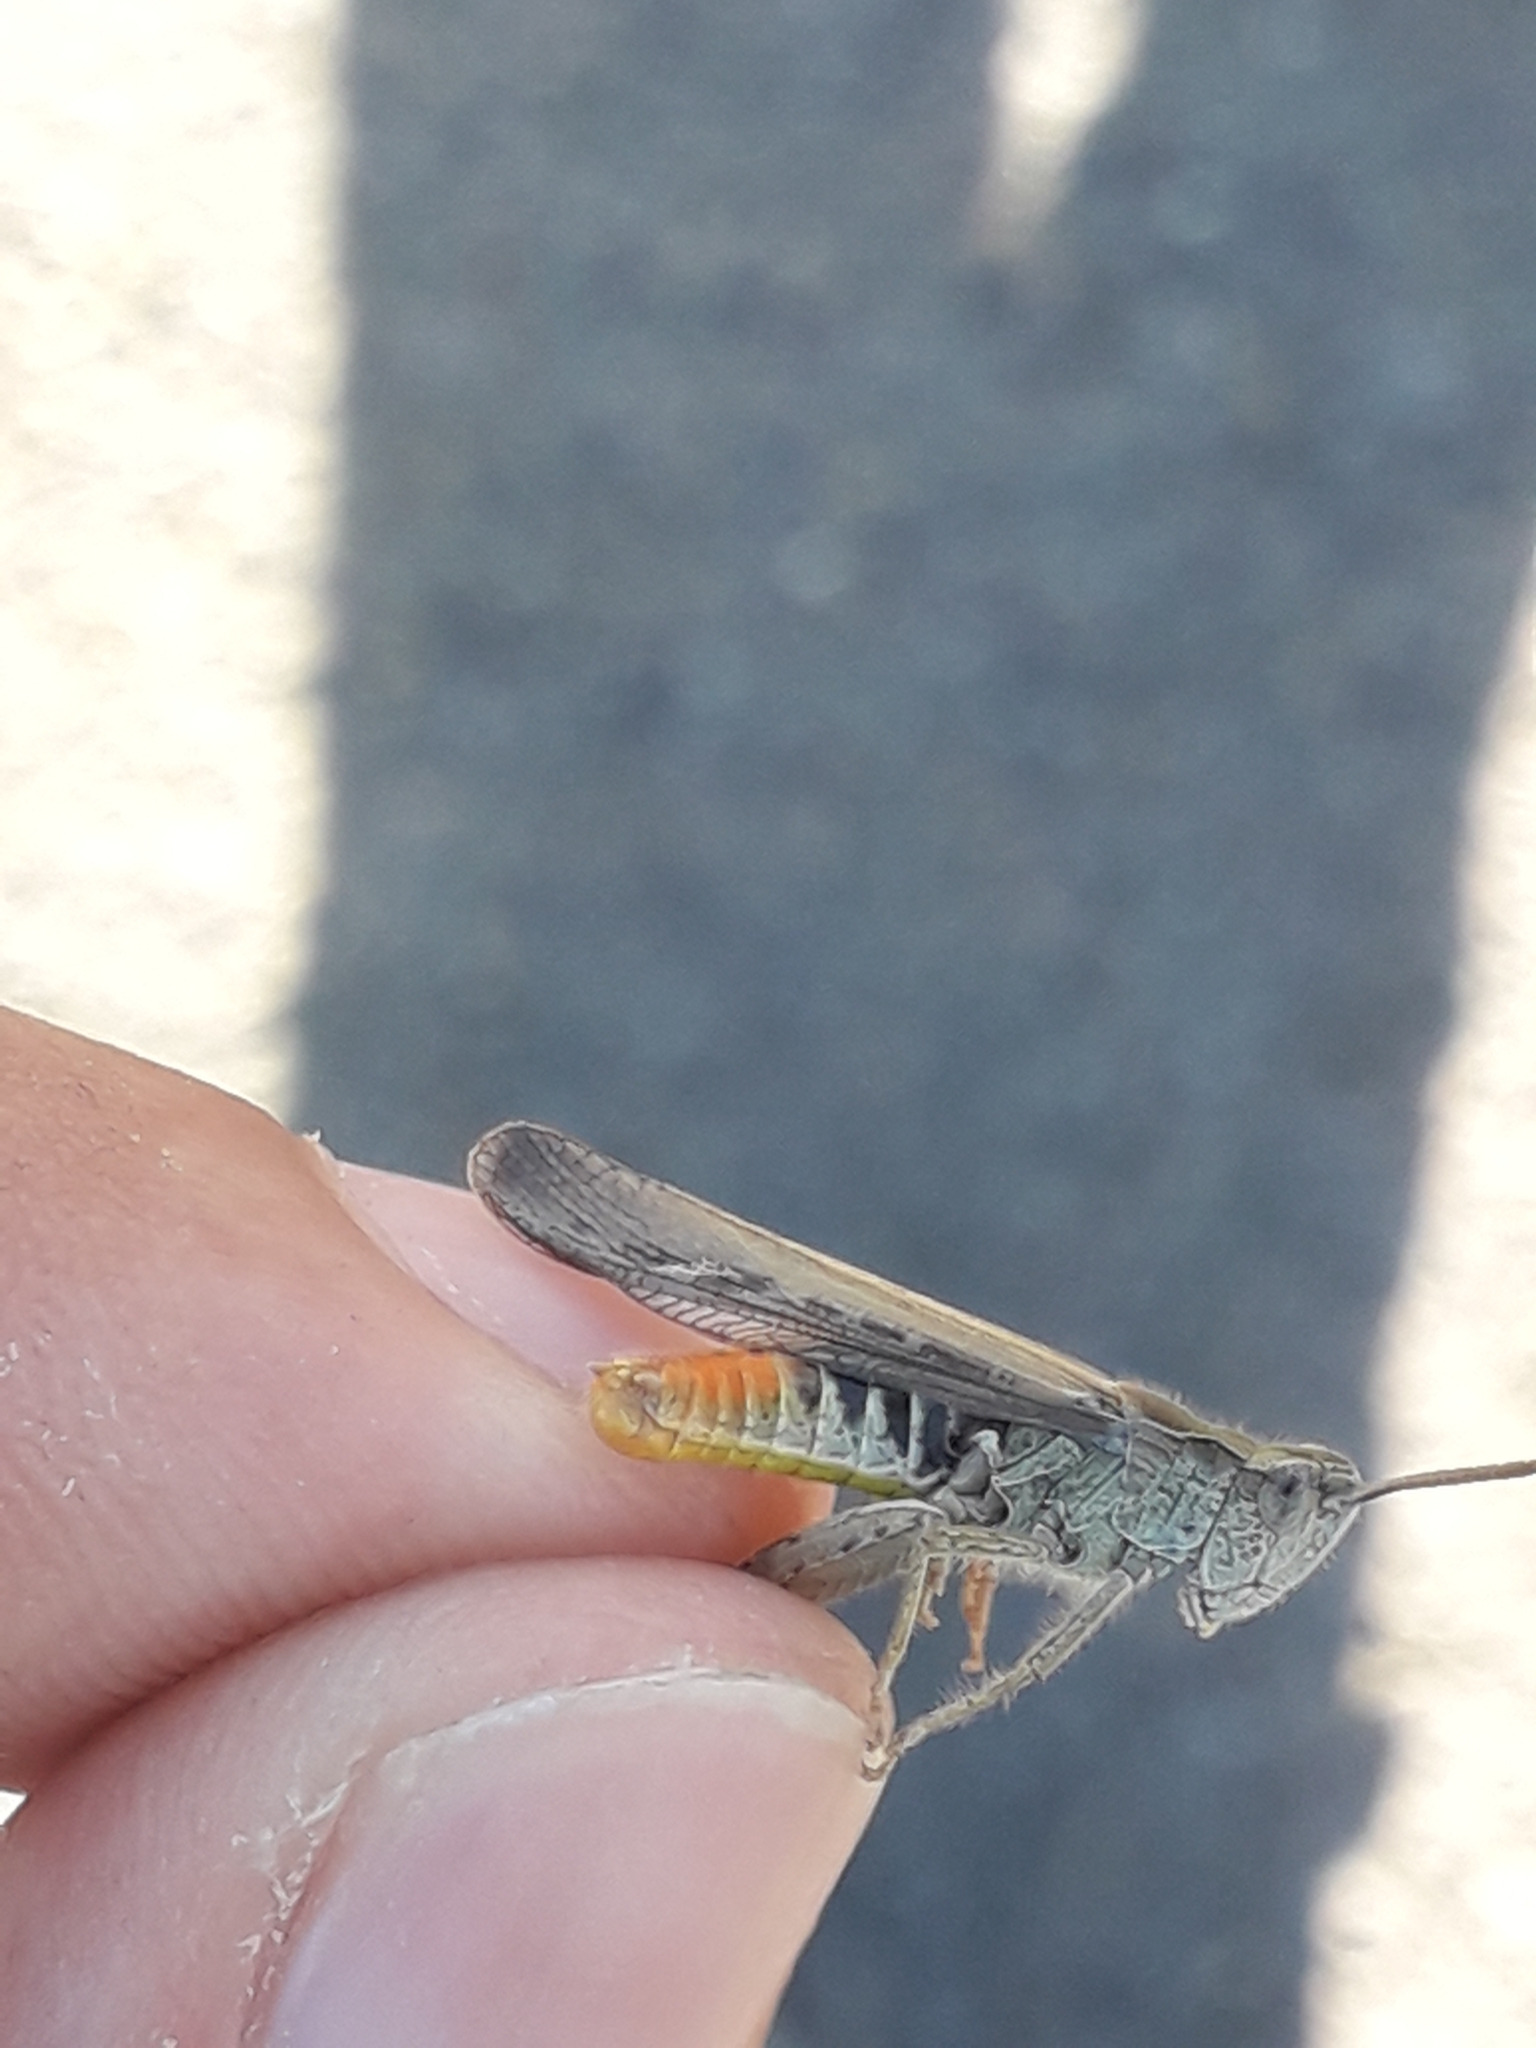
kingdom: Animalia
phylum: Arthropoda
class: Insecta
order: Orthoptera
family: Acrididae
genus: Chorthippus
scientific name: Chorthippus brunneus
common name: Field grasshopper
